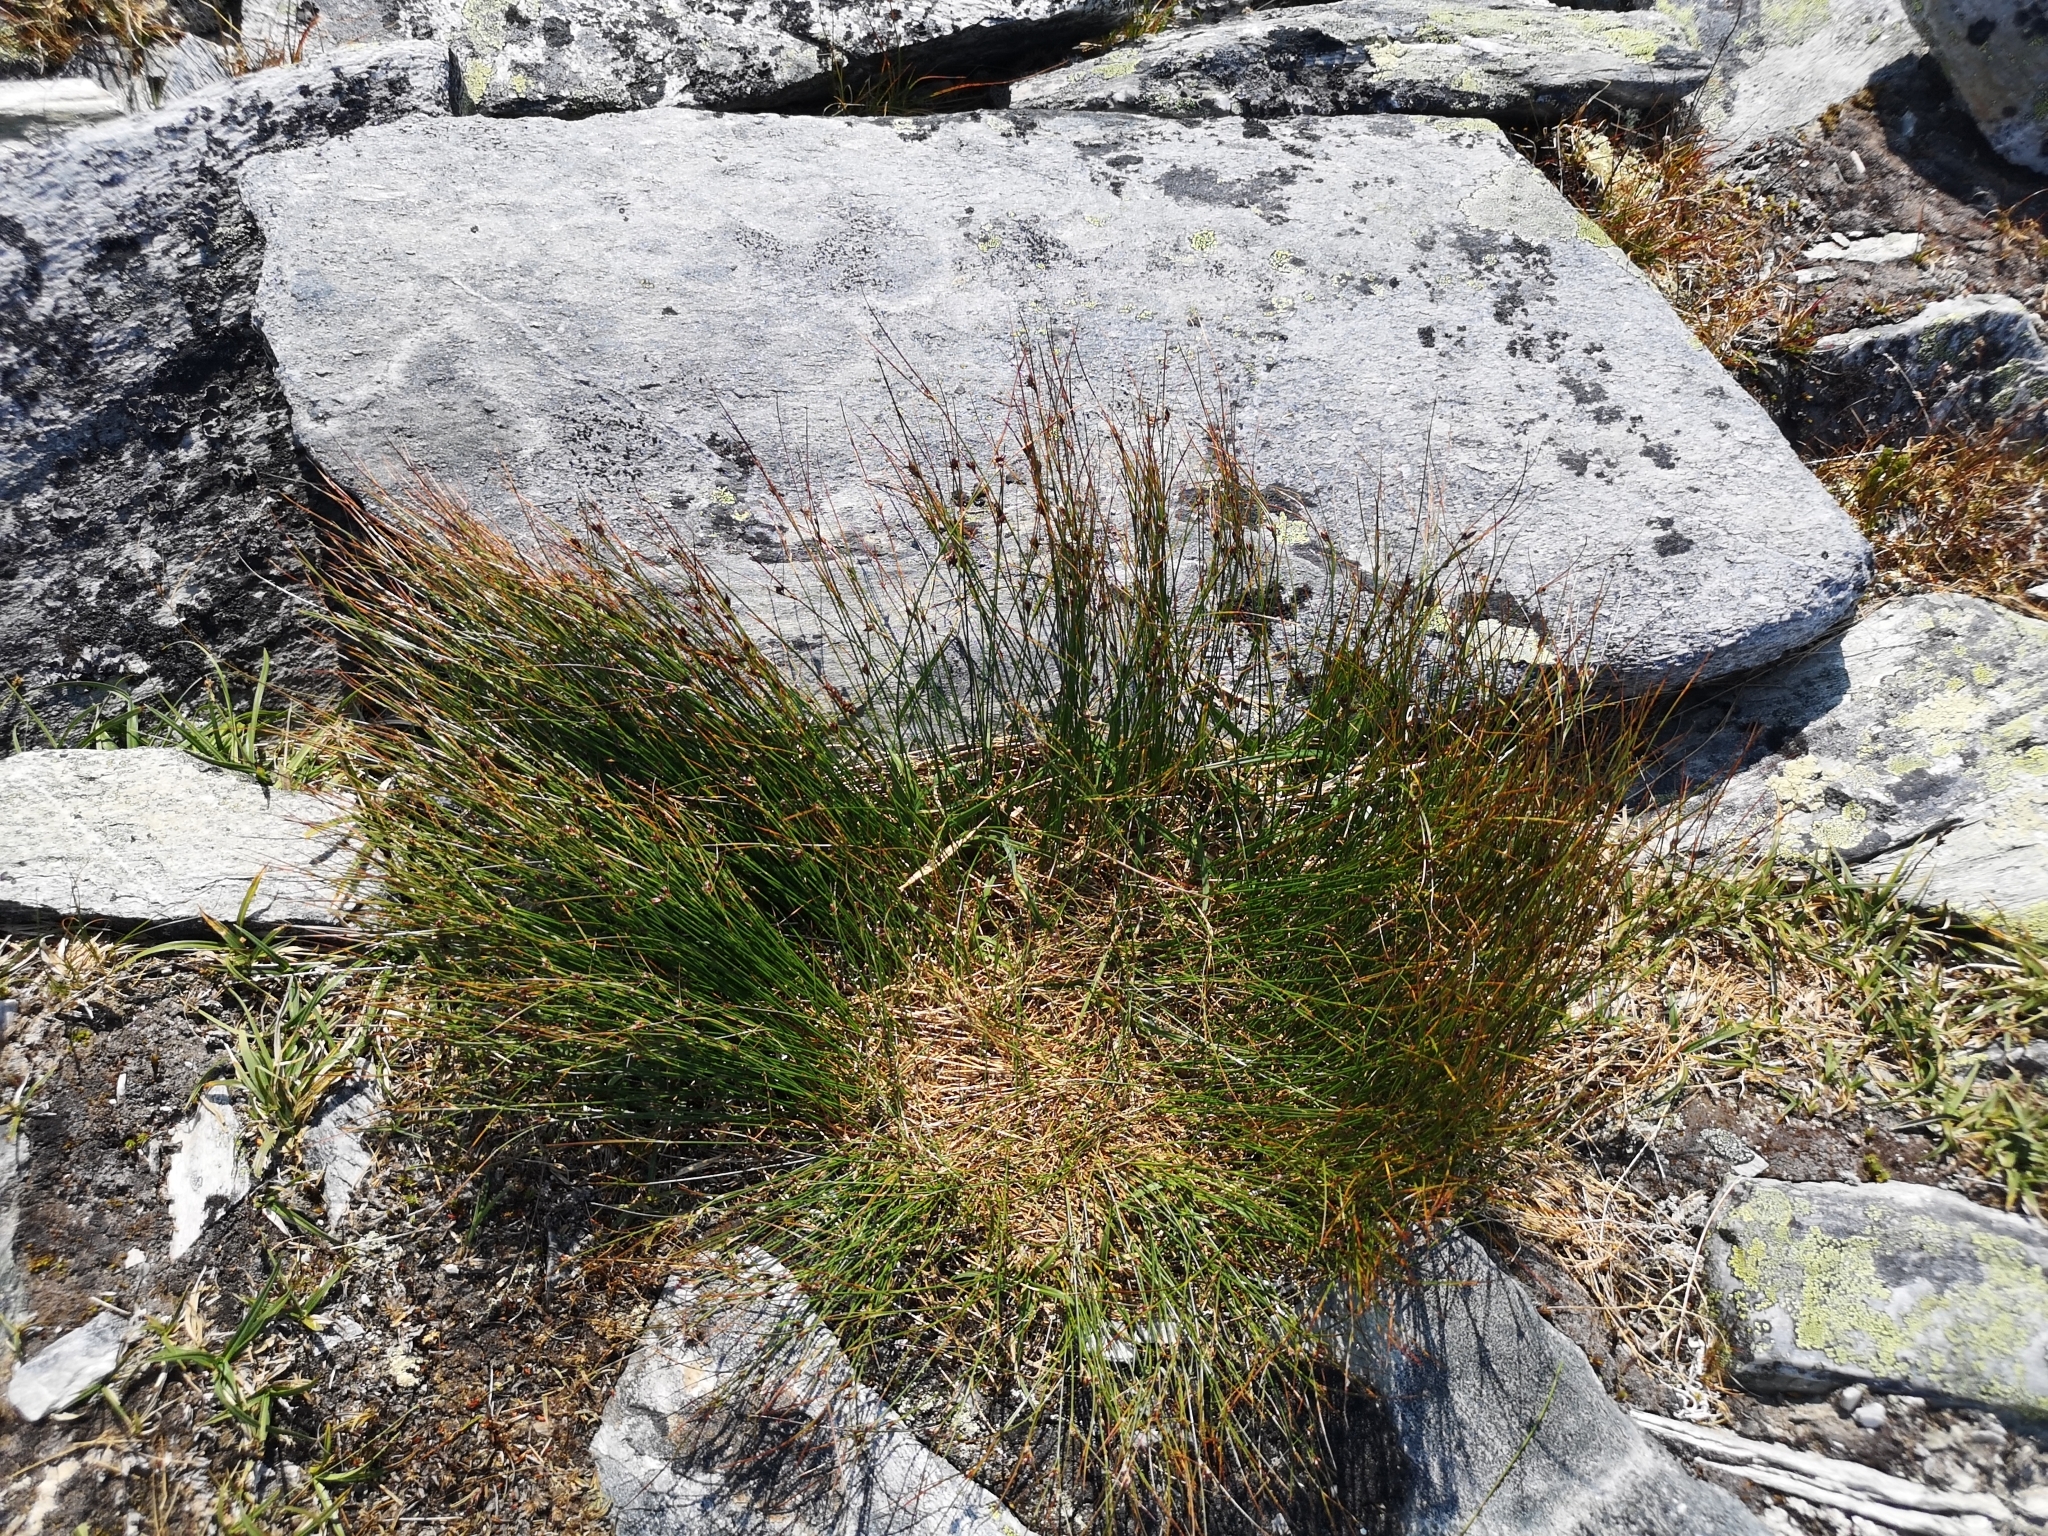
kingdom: Plantae
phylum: Tracheophyta
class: Liliopsida
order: Poales
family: Juncaceae
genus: Oreojuncus
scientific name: Oreojuncus trifidus
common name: Highland rush
